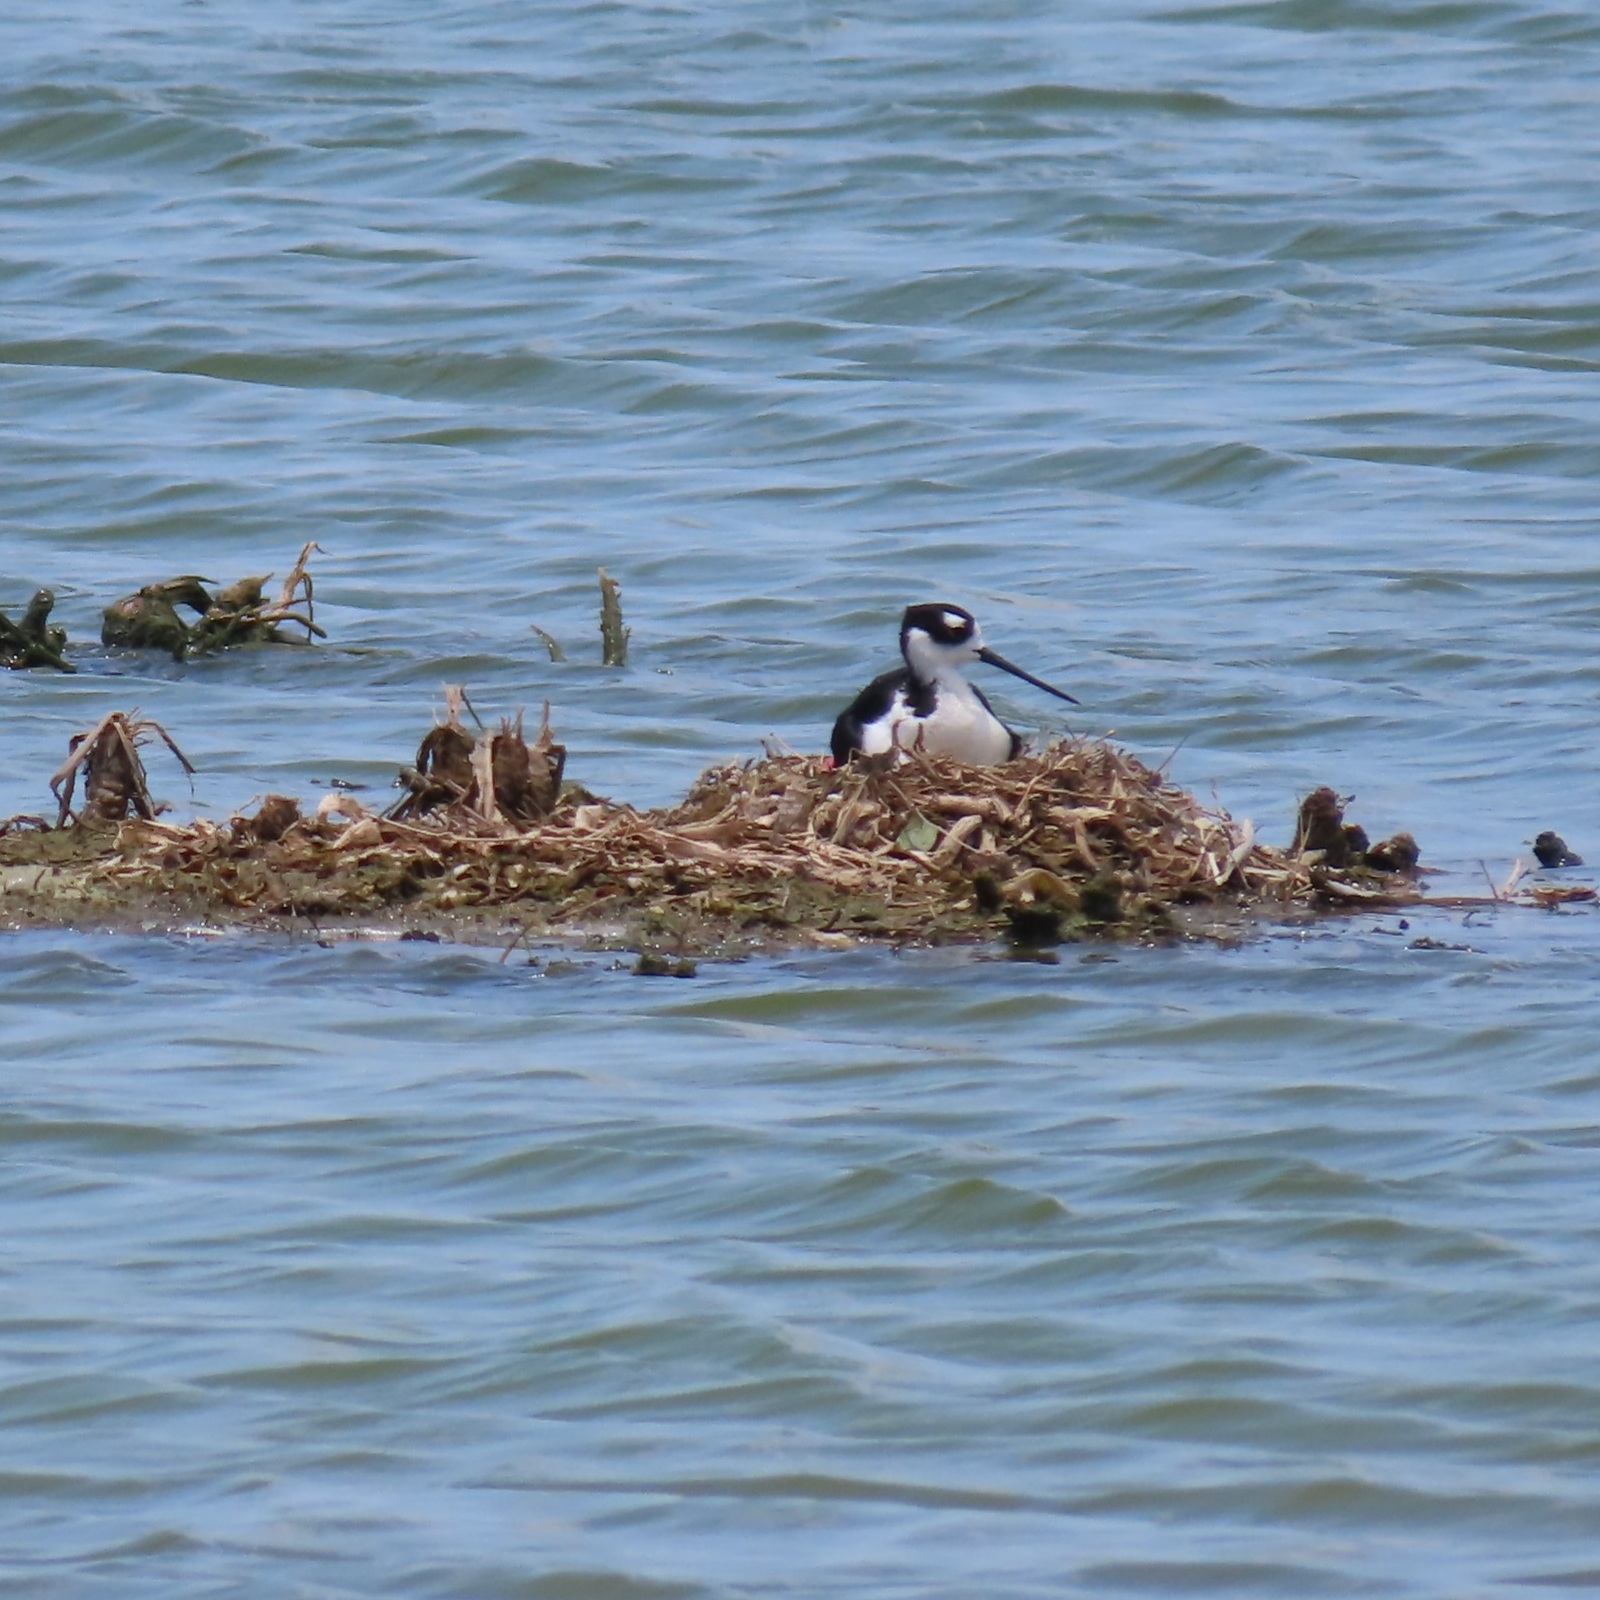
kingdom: Animalia
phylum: Chordata
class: Aves
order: Charadriiformes
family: Recurvirostridae
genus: Himantopus
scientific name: Himantopus mexicanus
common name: Black-necked stilt
